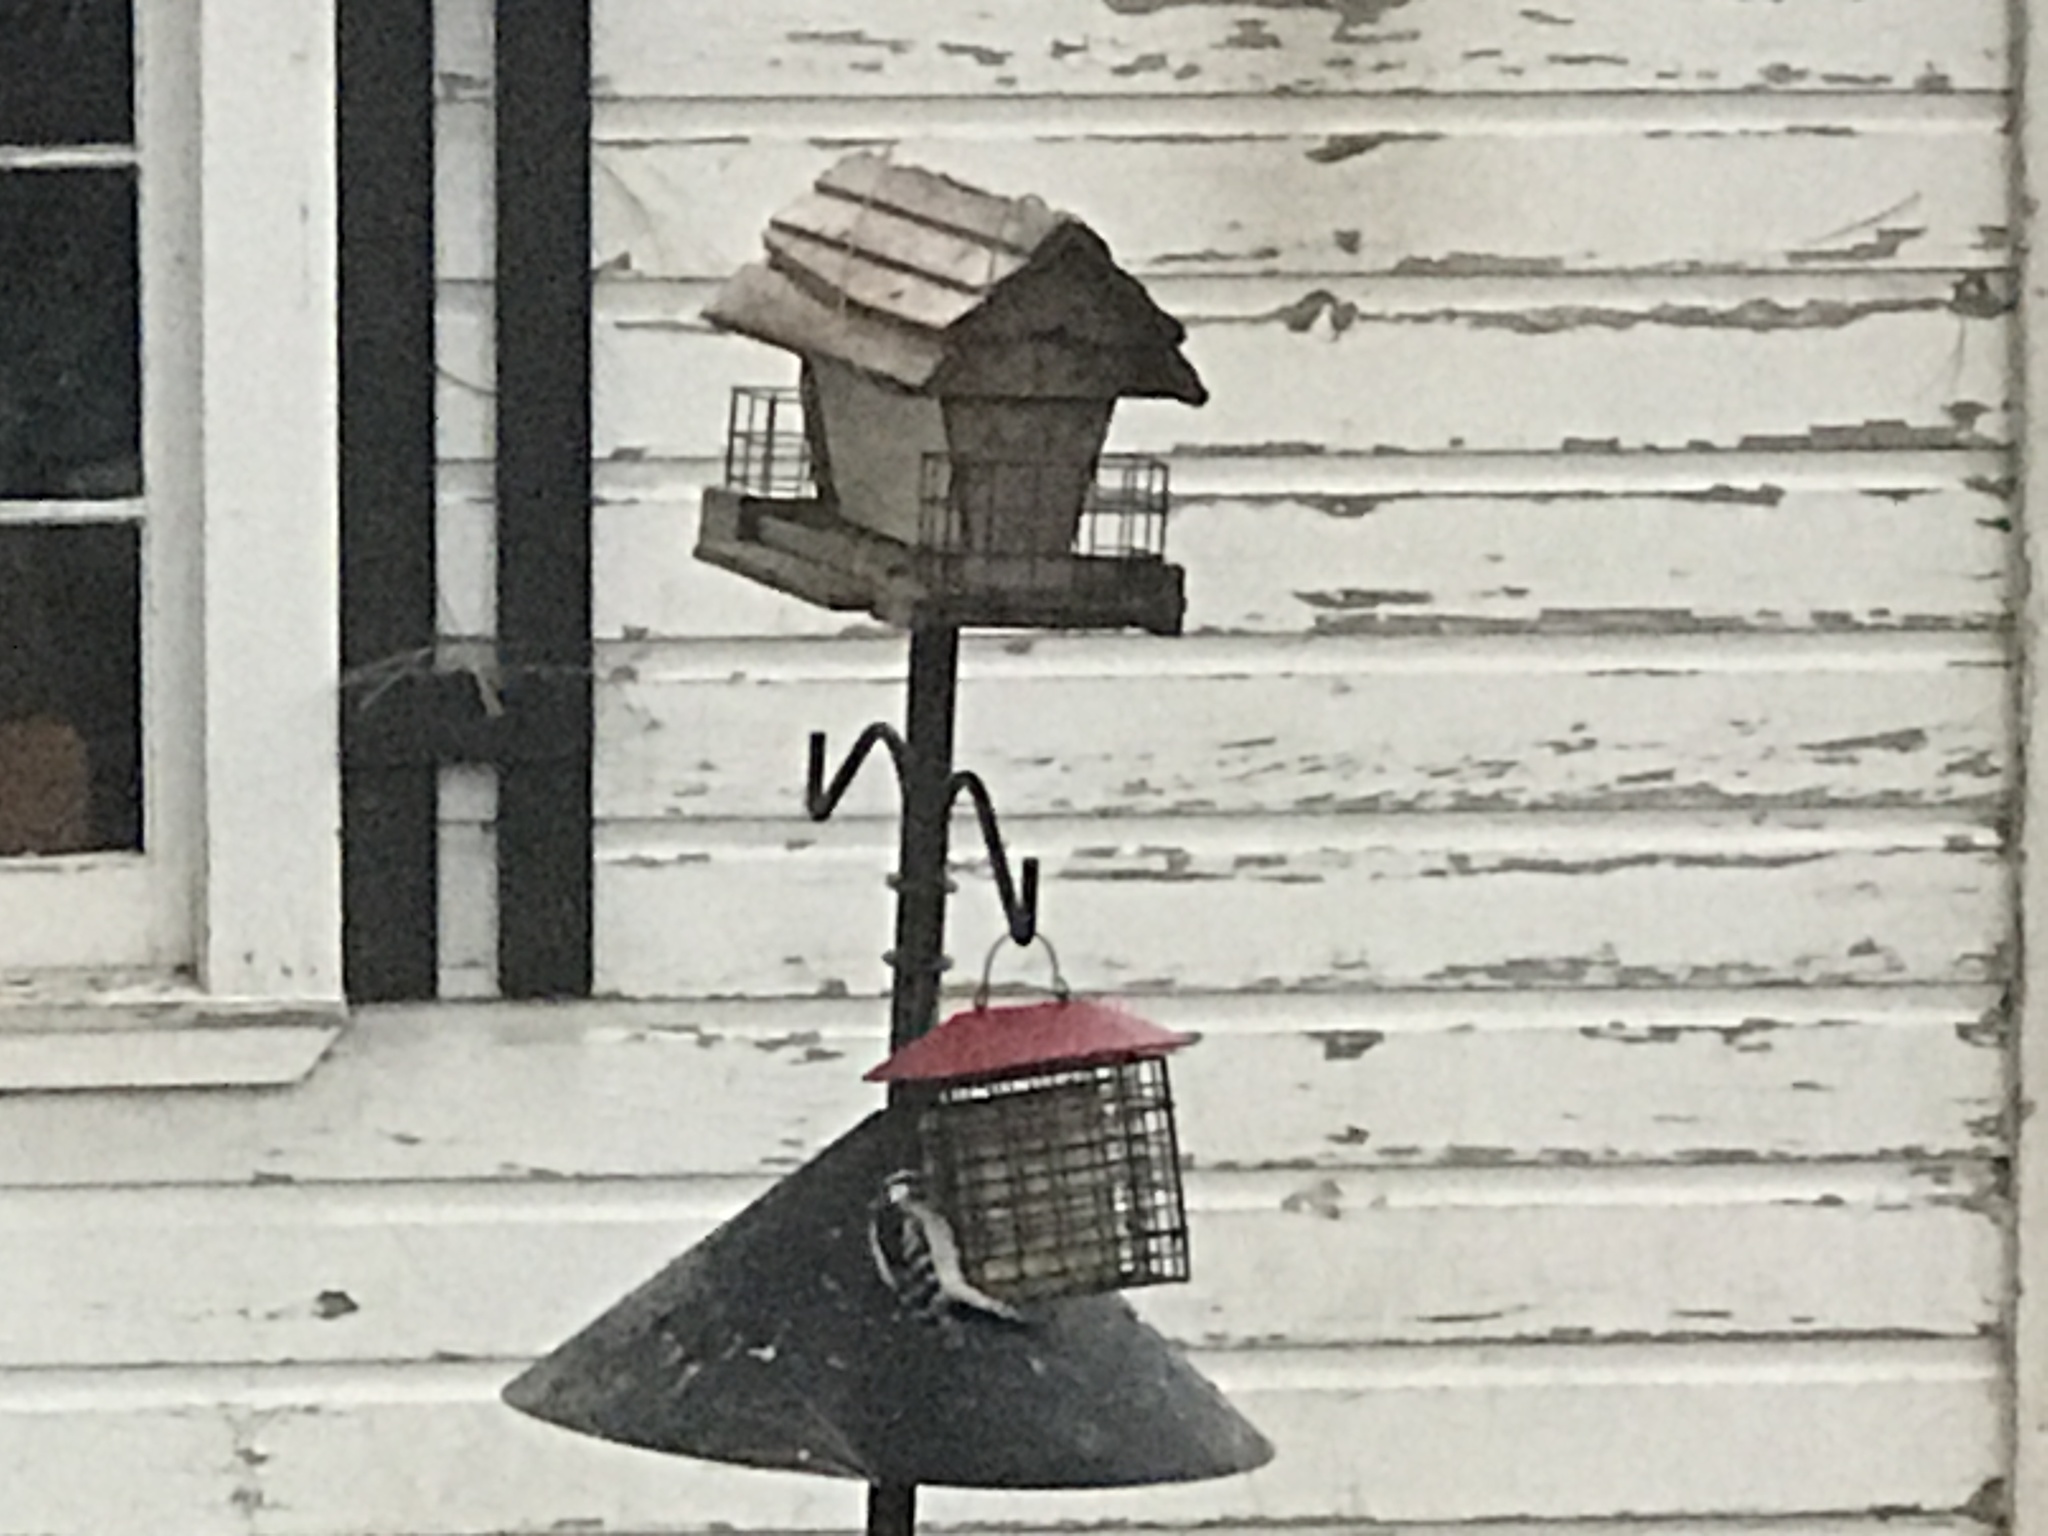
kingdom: Animalia
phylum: Chordata
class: Aves
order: Piciformes
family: Picidae
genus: Dryobates
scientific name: Dryobates pubescens
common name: Downy woodpecker
